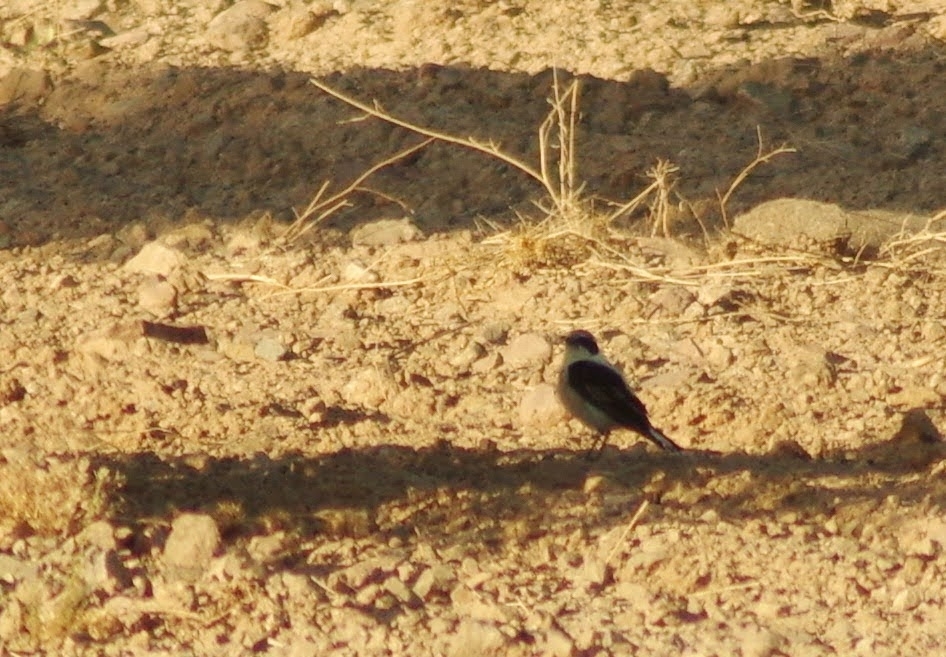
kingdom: Animalia
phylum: Chordata
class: Aves
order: Passeriformes
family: Muscicapidae
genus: Oenanthe
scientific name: Oenanthe hispanica
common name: Black-eared wheatear
